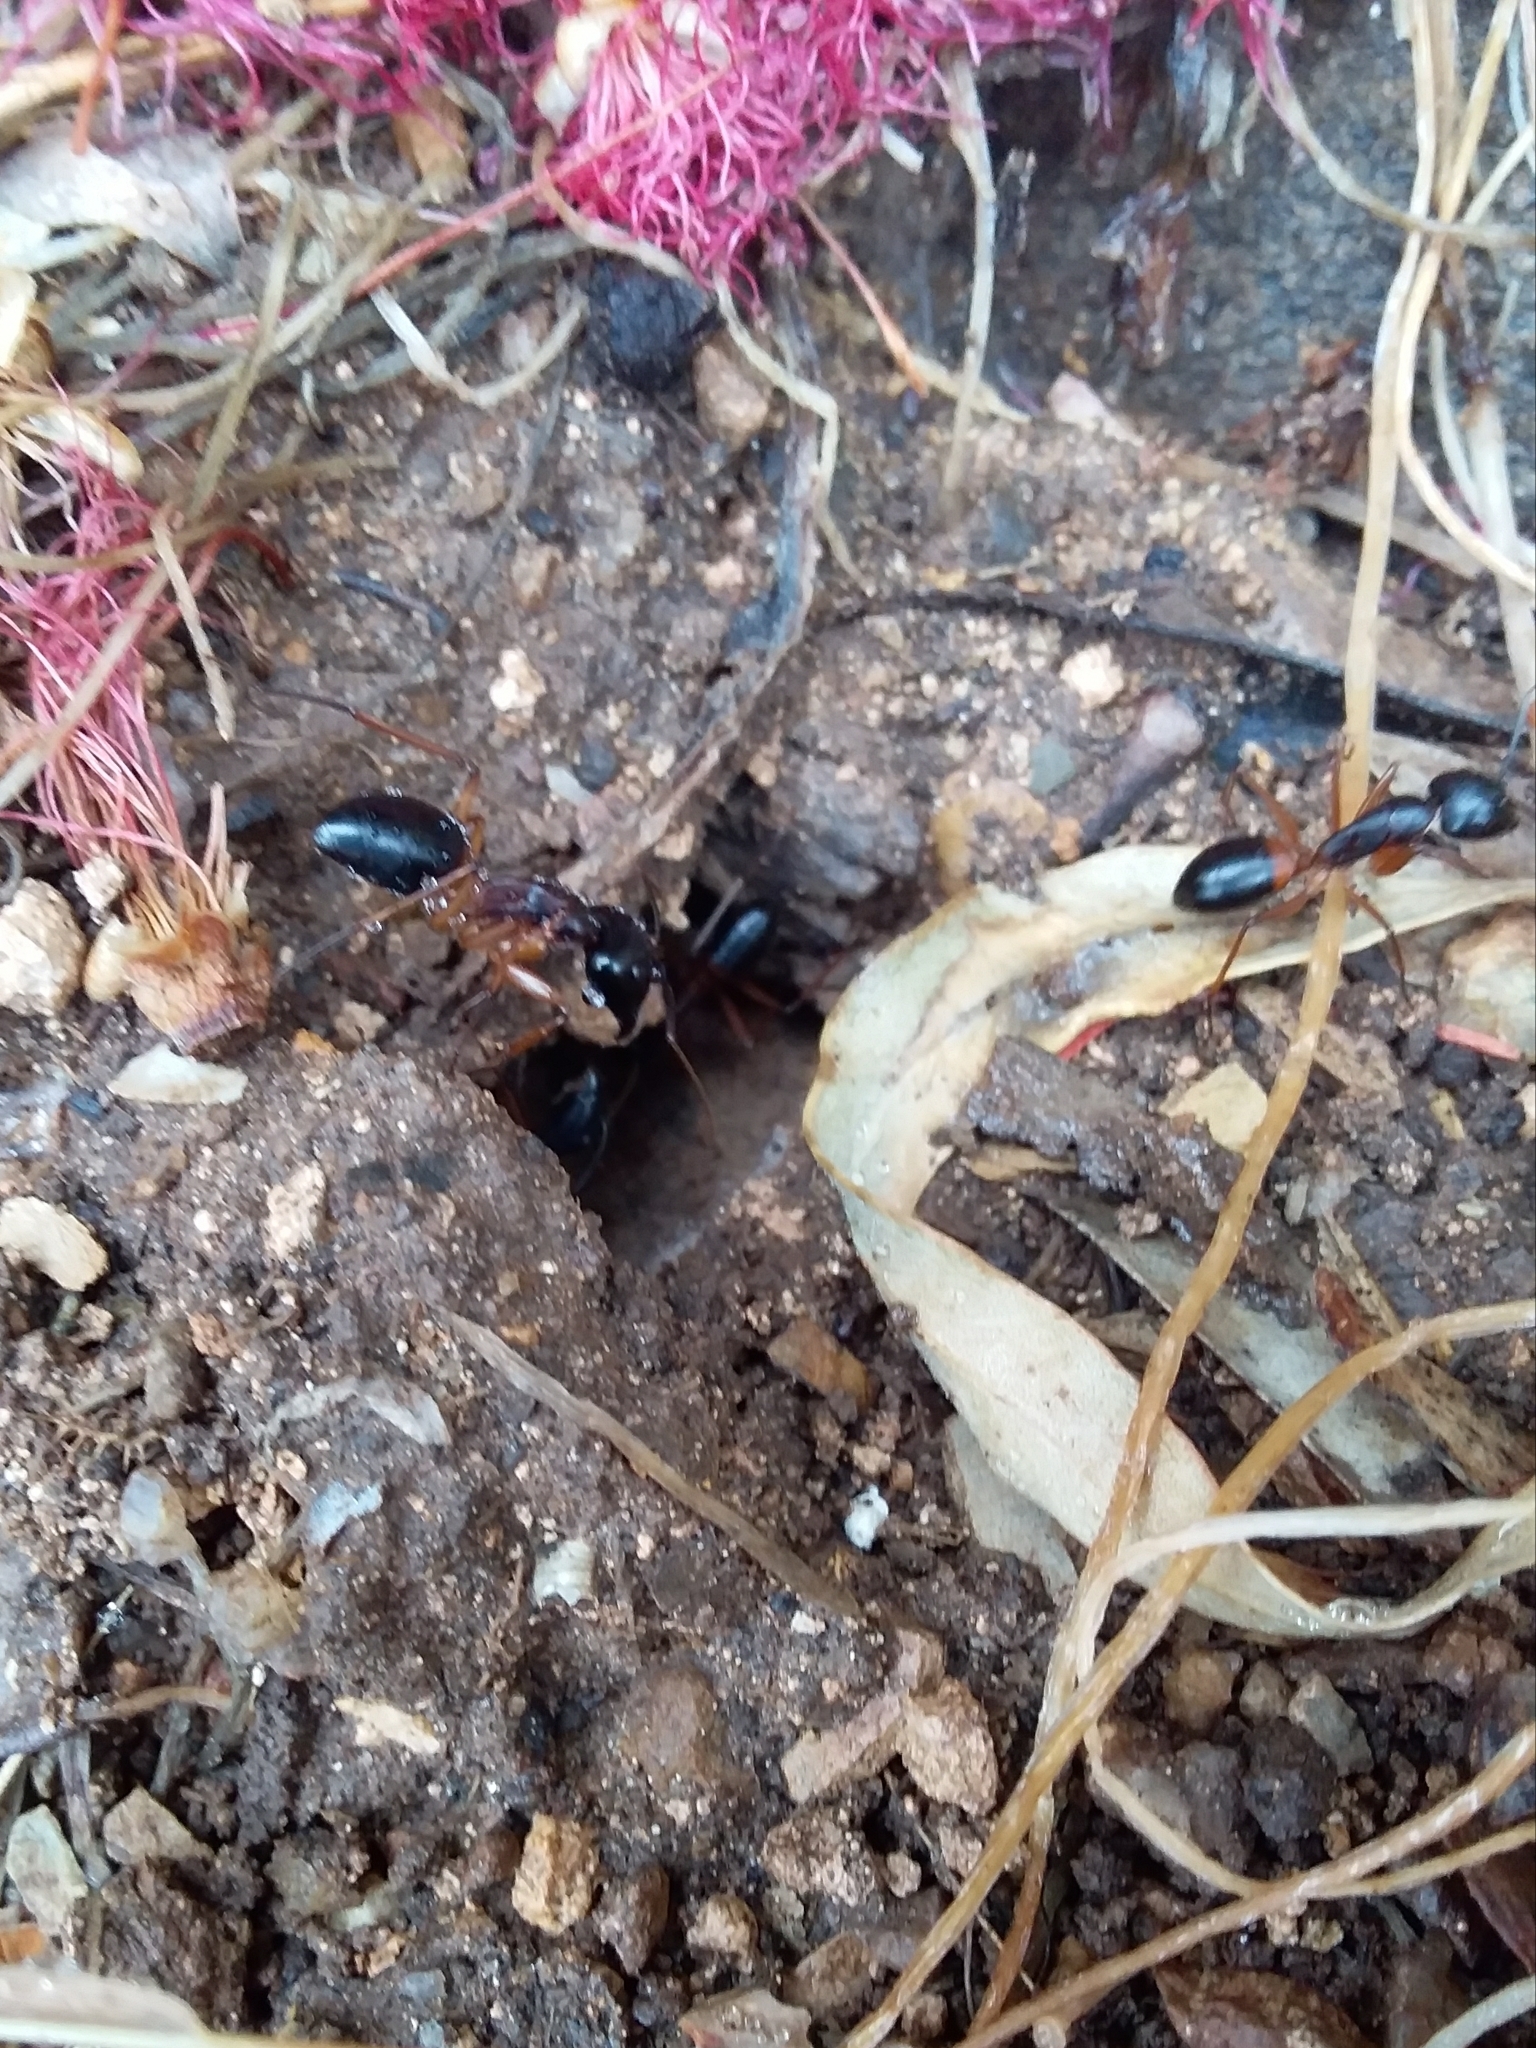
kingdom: Animalia
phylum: Arthropoda
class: Insecta
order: Hymenoptera
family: Formicidae
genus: Camponotus
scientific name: Camponotus consobrinus
